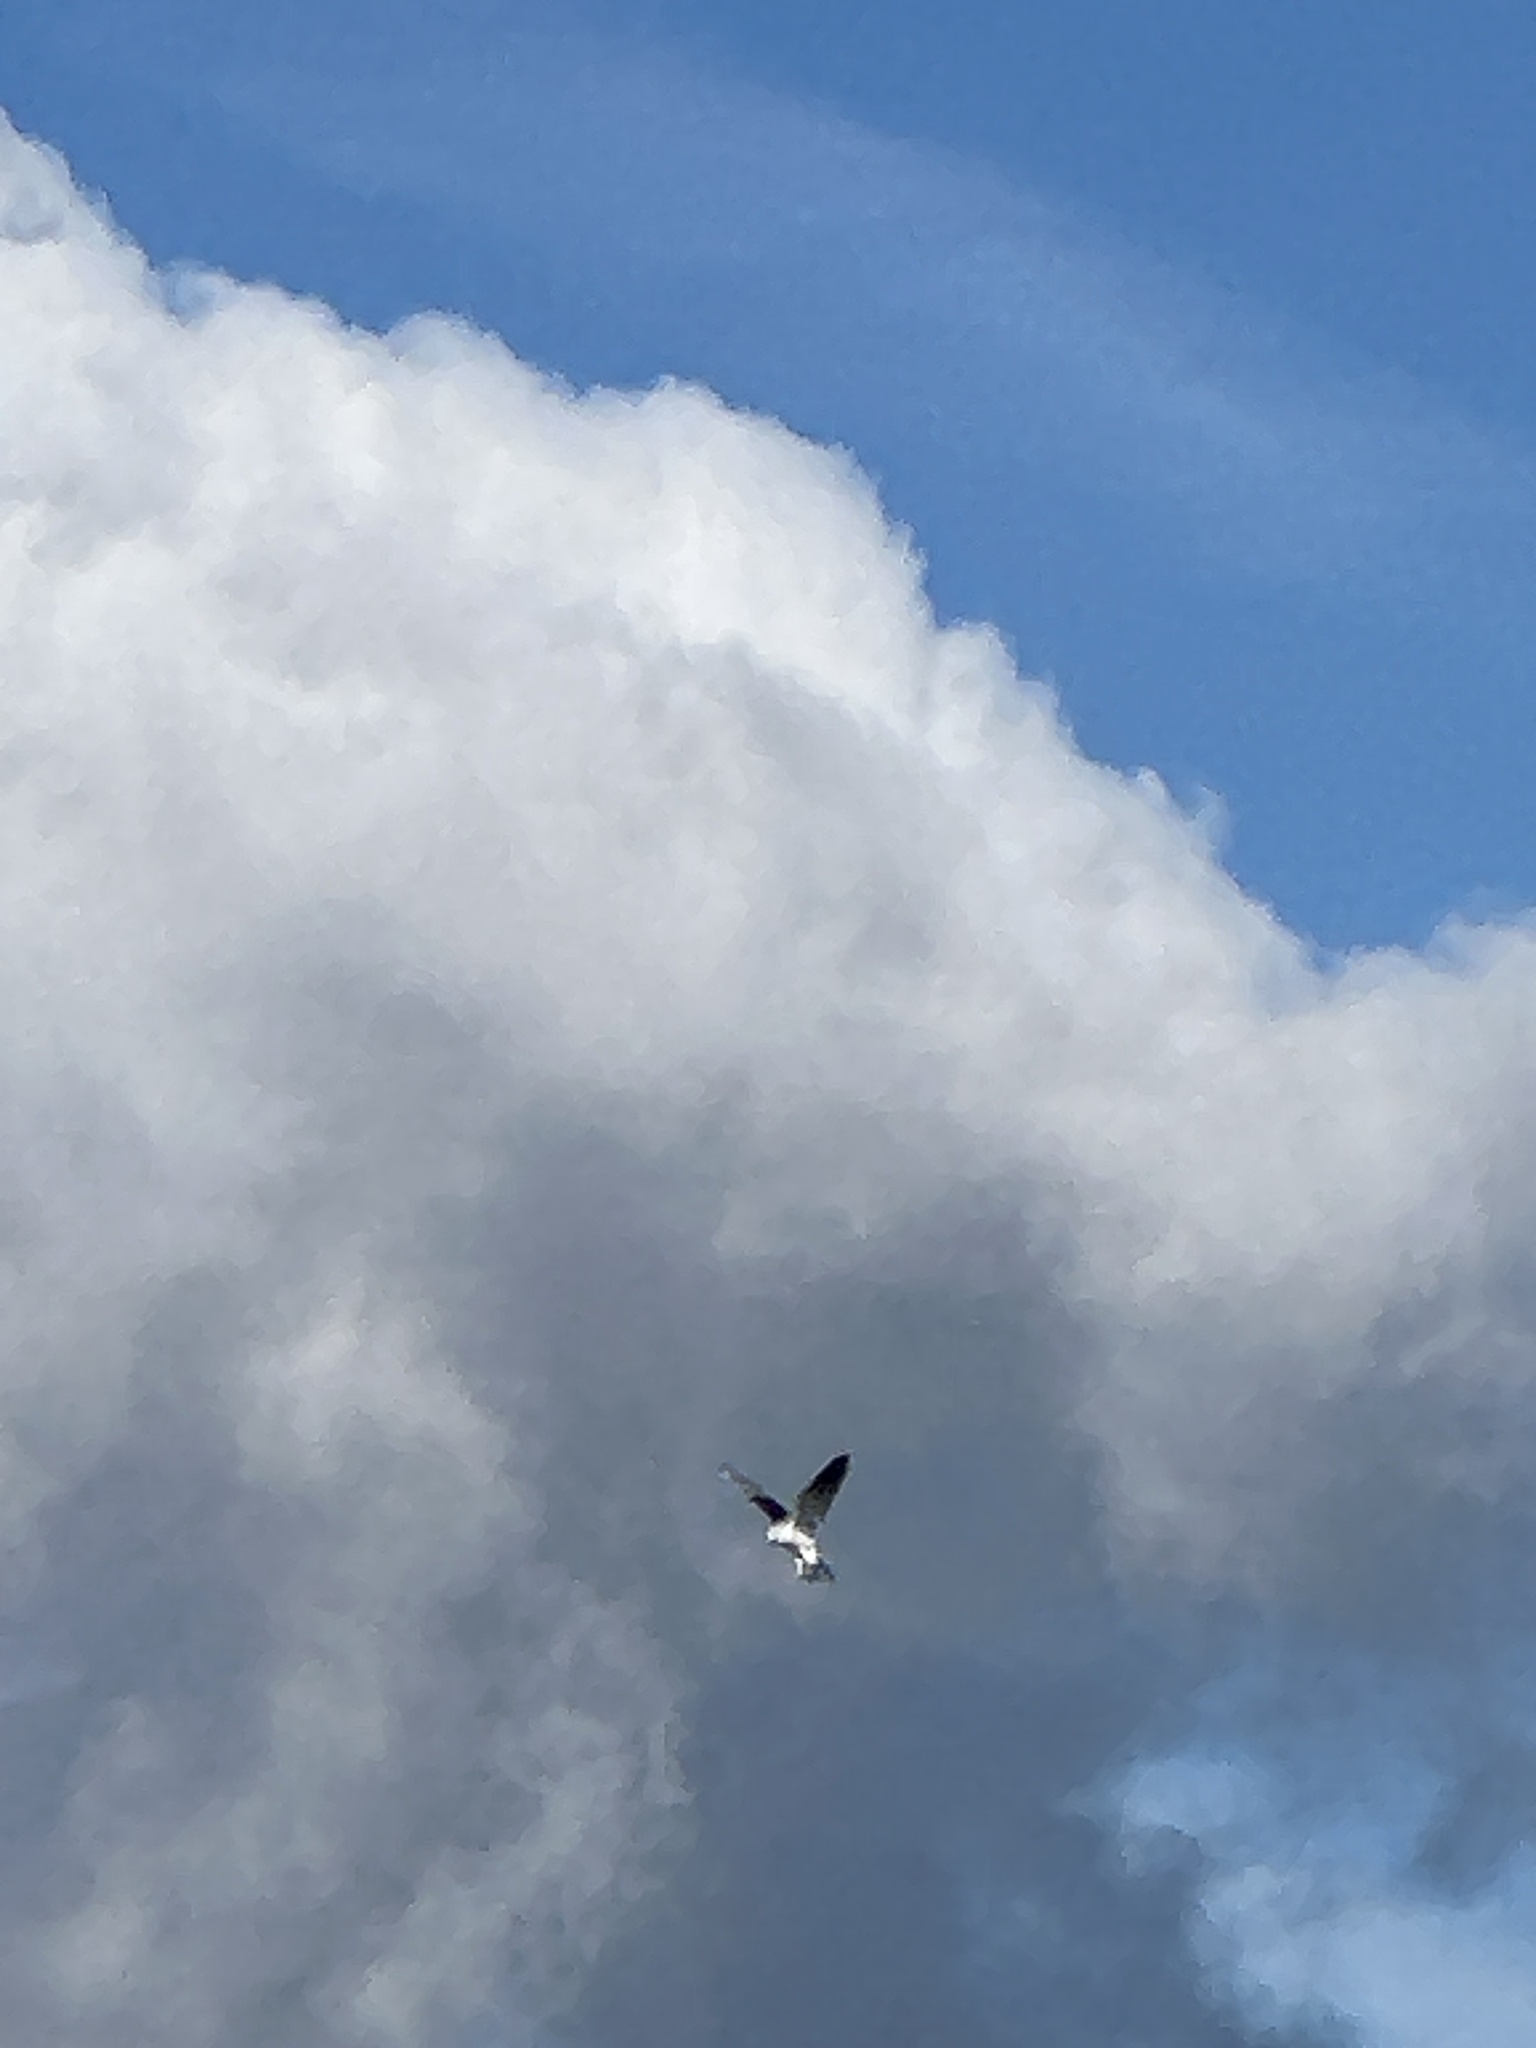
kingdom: Animalia
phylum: Chordata
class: Aves
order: Accipitriformes
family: Accipitridae
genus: Elanus
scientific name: Elanus leucurus
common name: White-tailed kite
